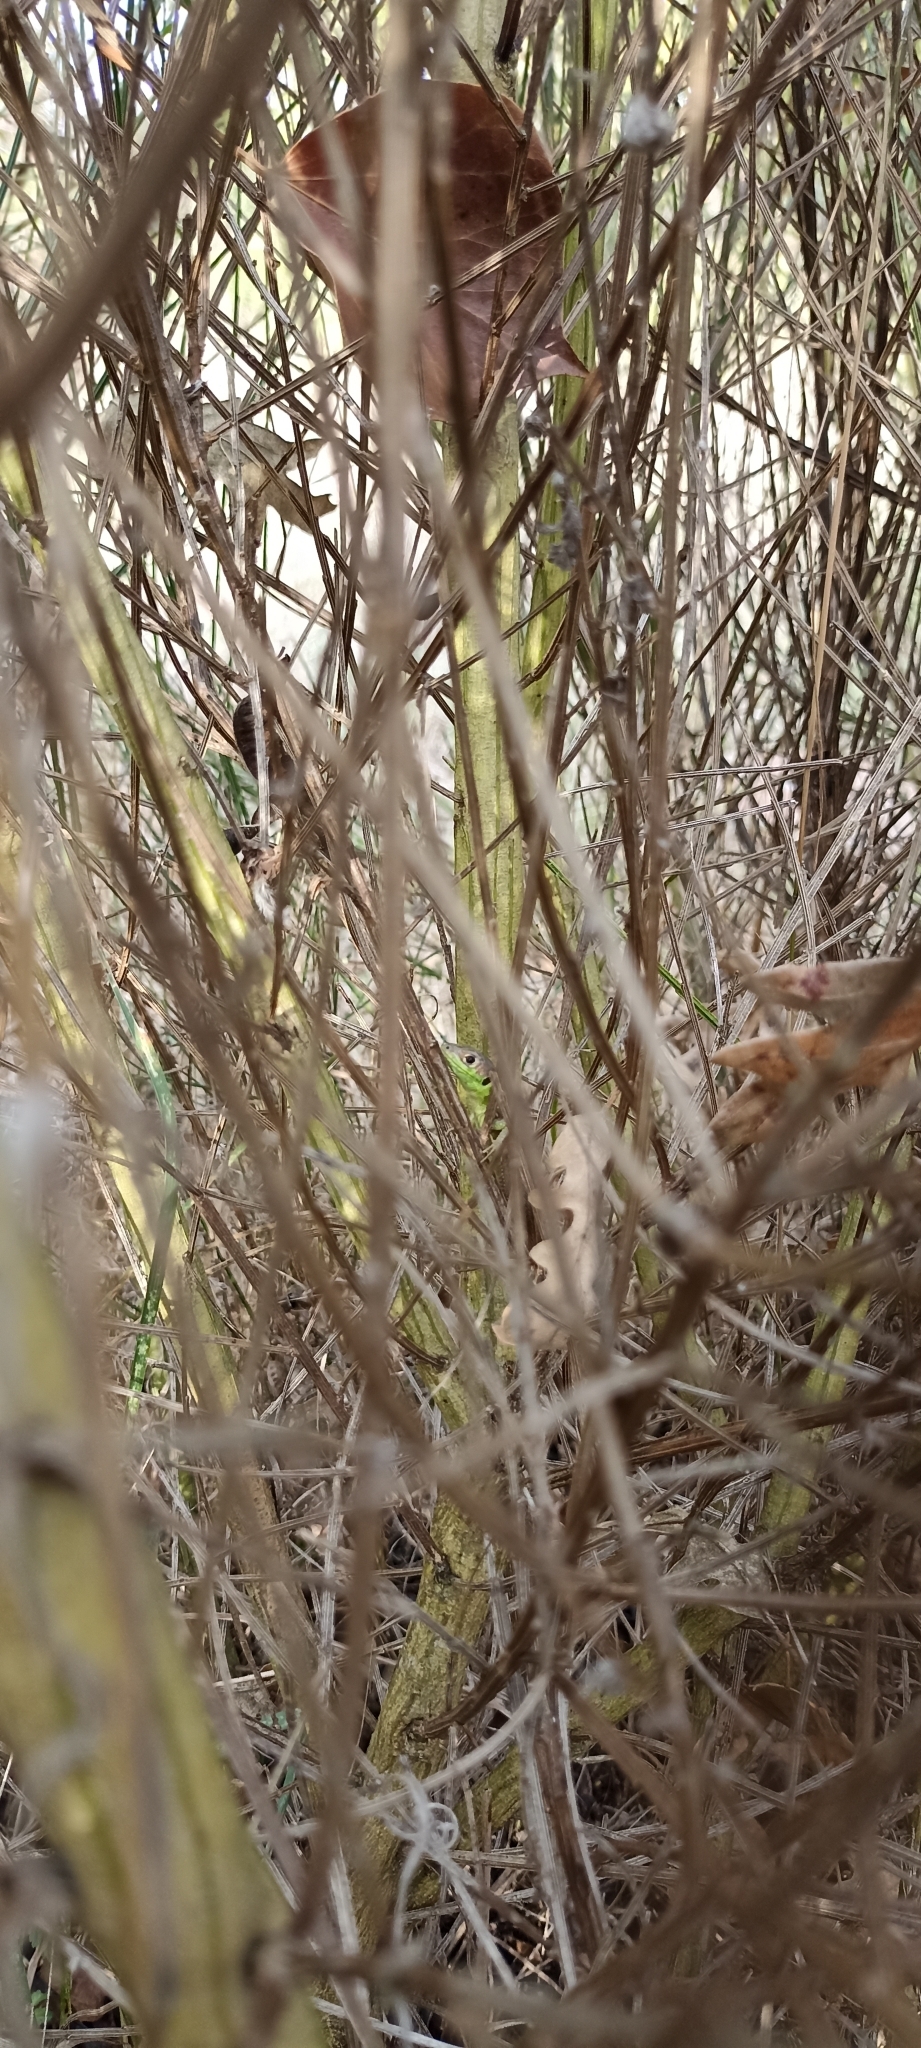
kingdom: Animalia
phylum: Chordata
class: Squamata
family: Lacertidae
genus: Lacerta
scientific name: Lacerta bilineata
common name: Western green lizard
